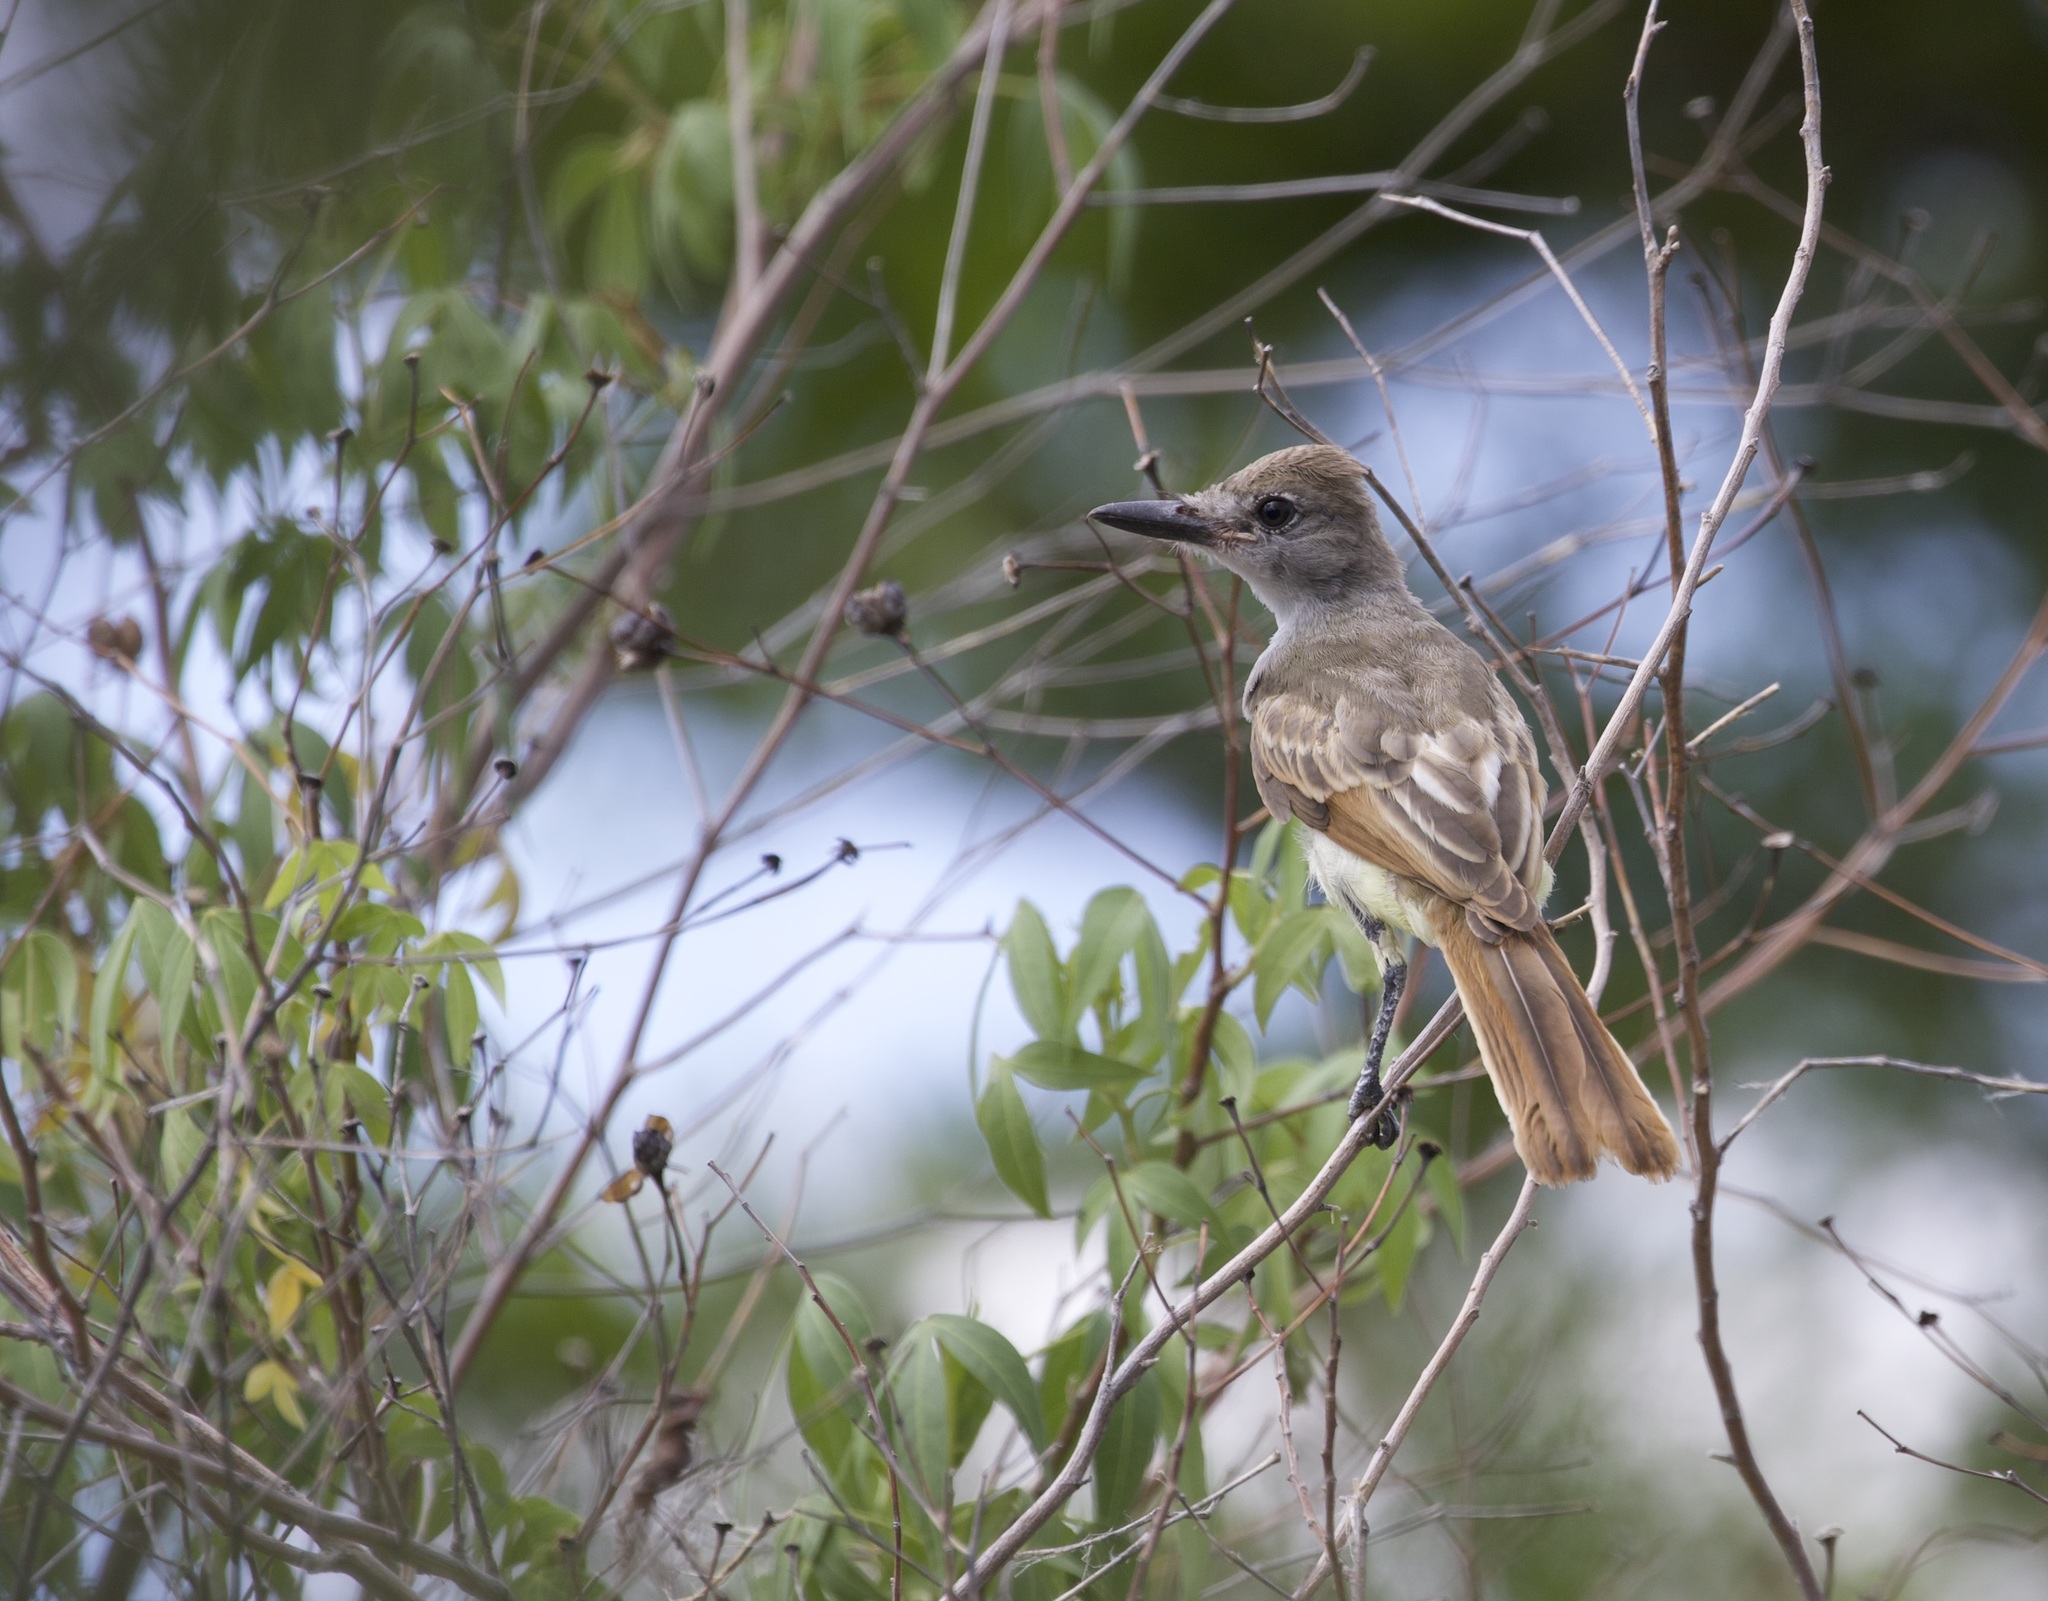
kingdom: Animalia
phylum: Chordata
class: Aves
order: Passeriformes
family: Tyrannidae
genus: Myiarchus
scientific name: Myiarchus tyrannulus
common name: Brown-crested flycatcher
